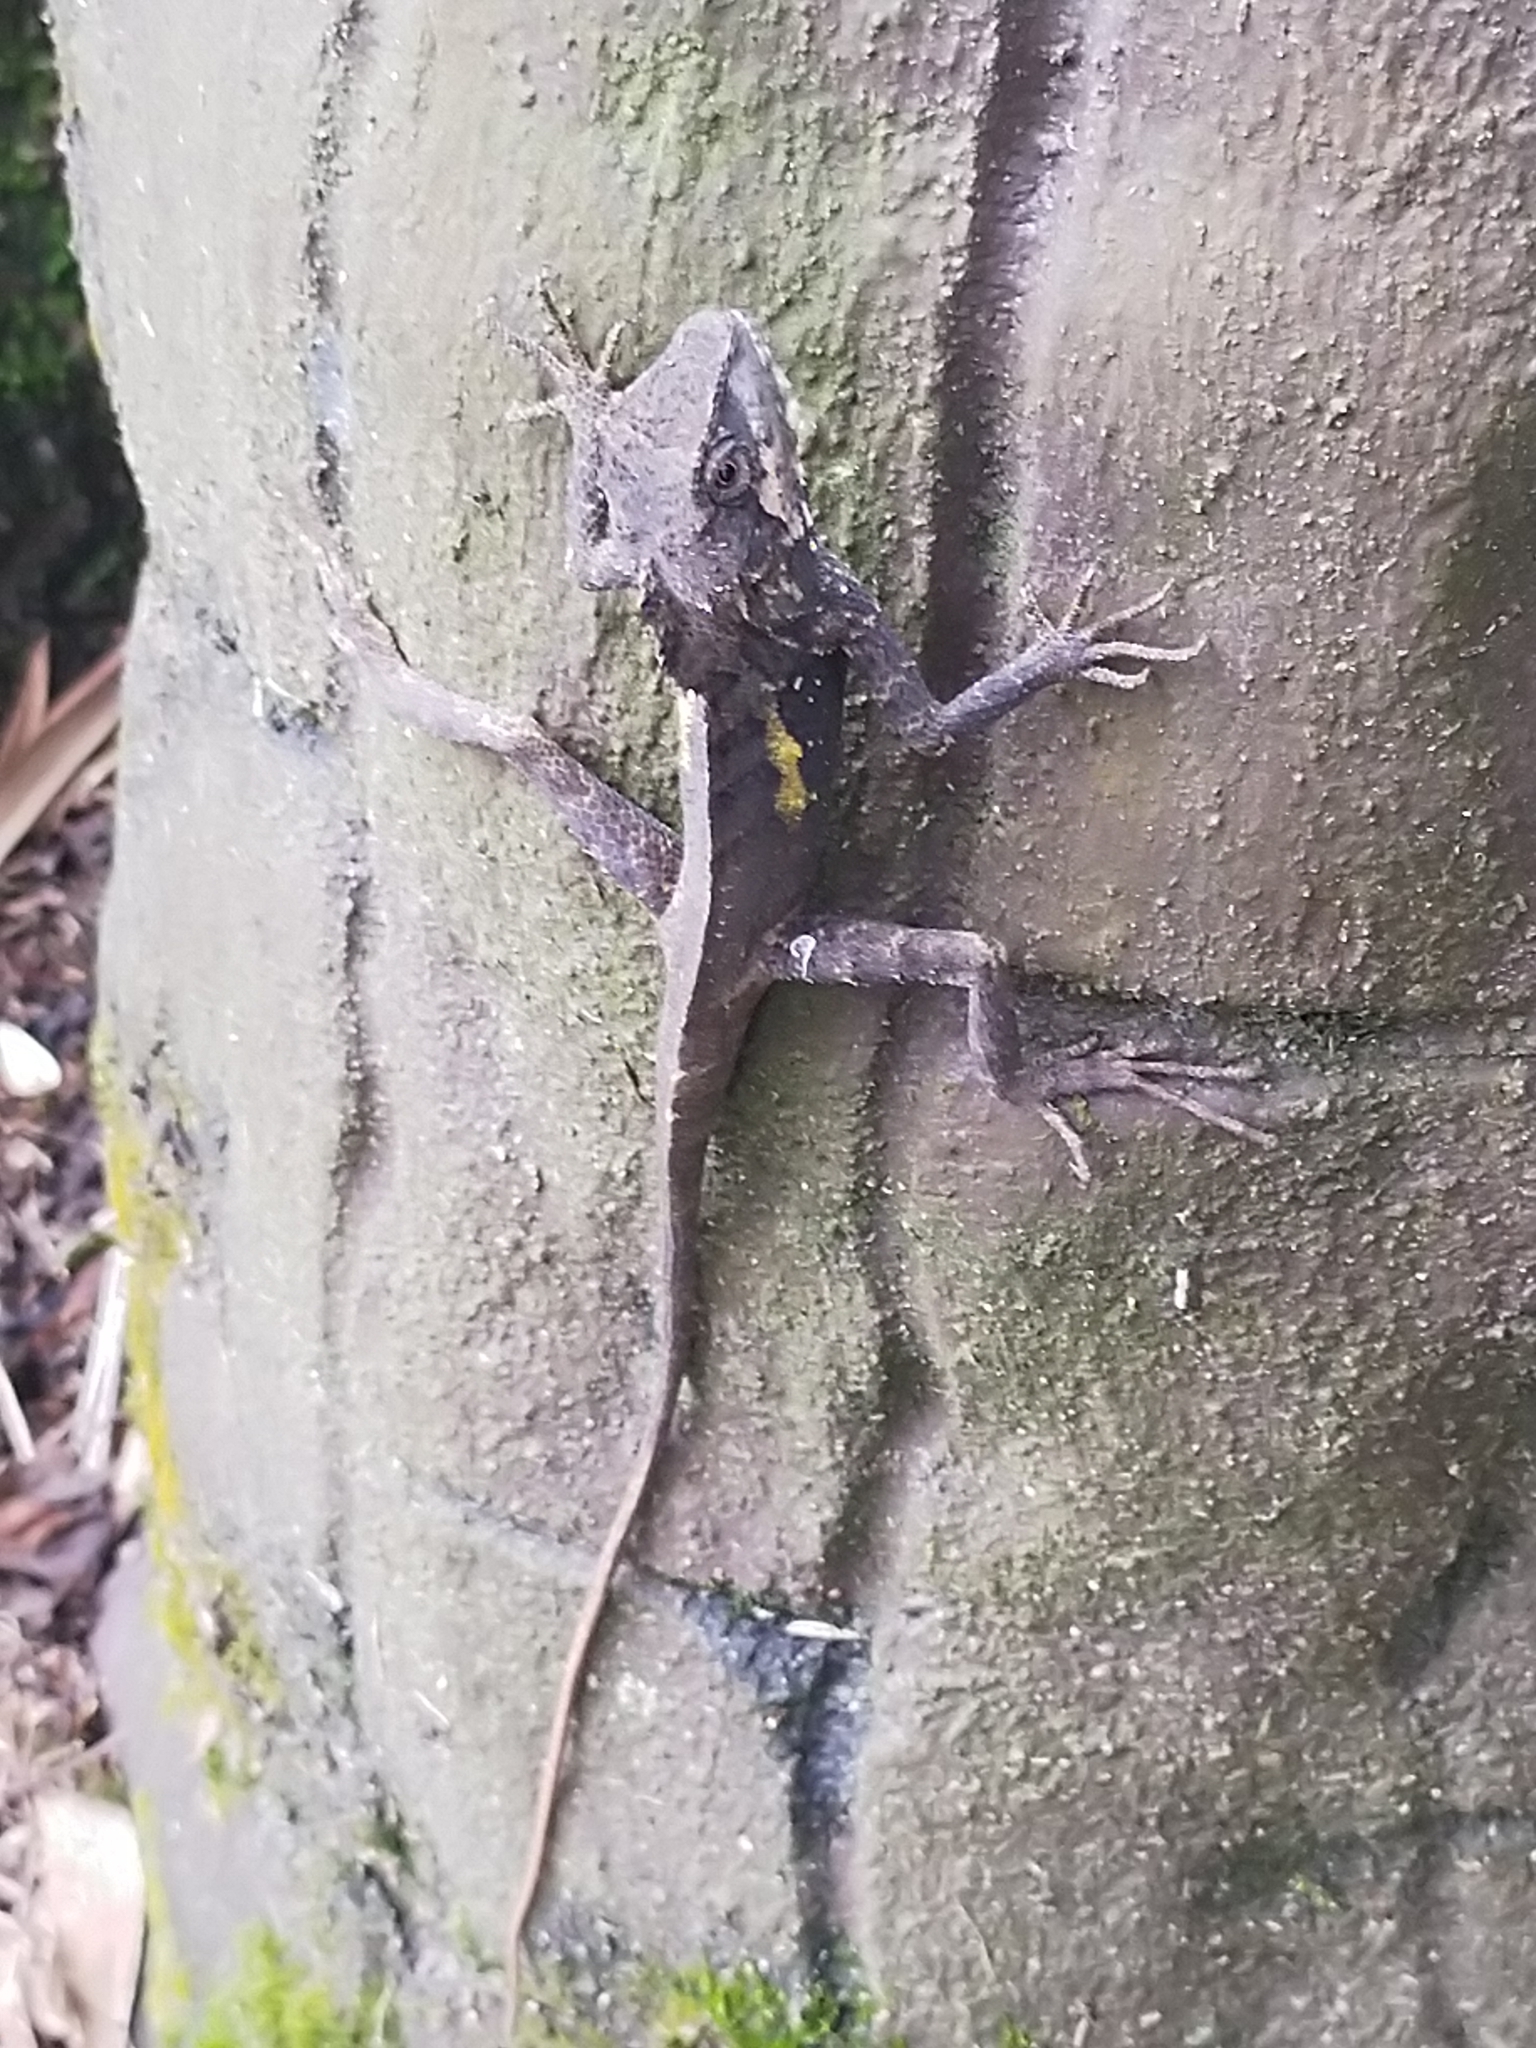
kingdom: Animalia
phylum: Chordata
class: Squamata
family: Agamidae
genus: Diploderma
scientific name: Diploderma swinhonis
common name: Taiwan japalure
